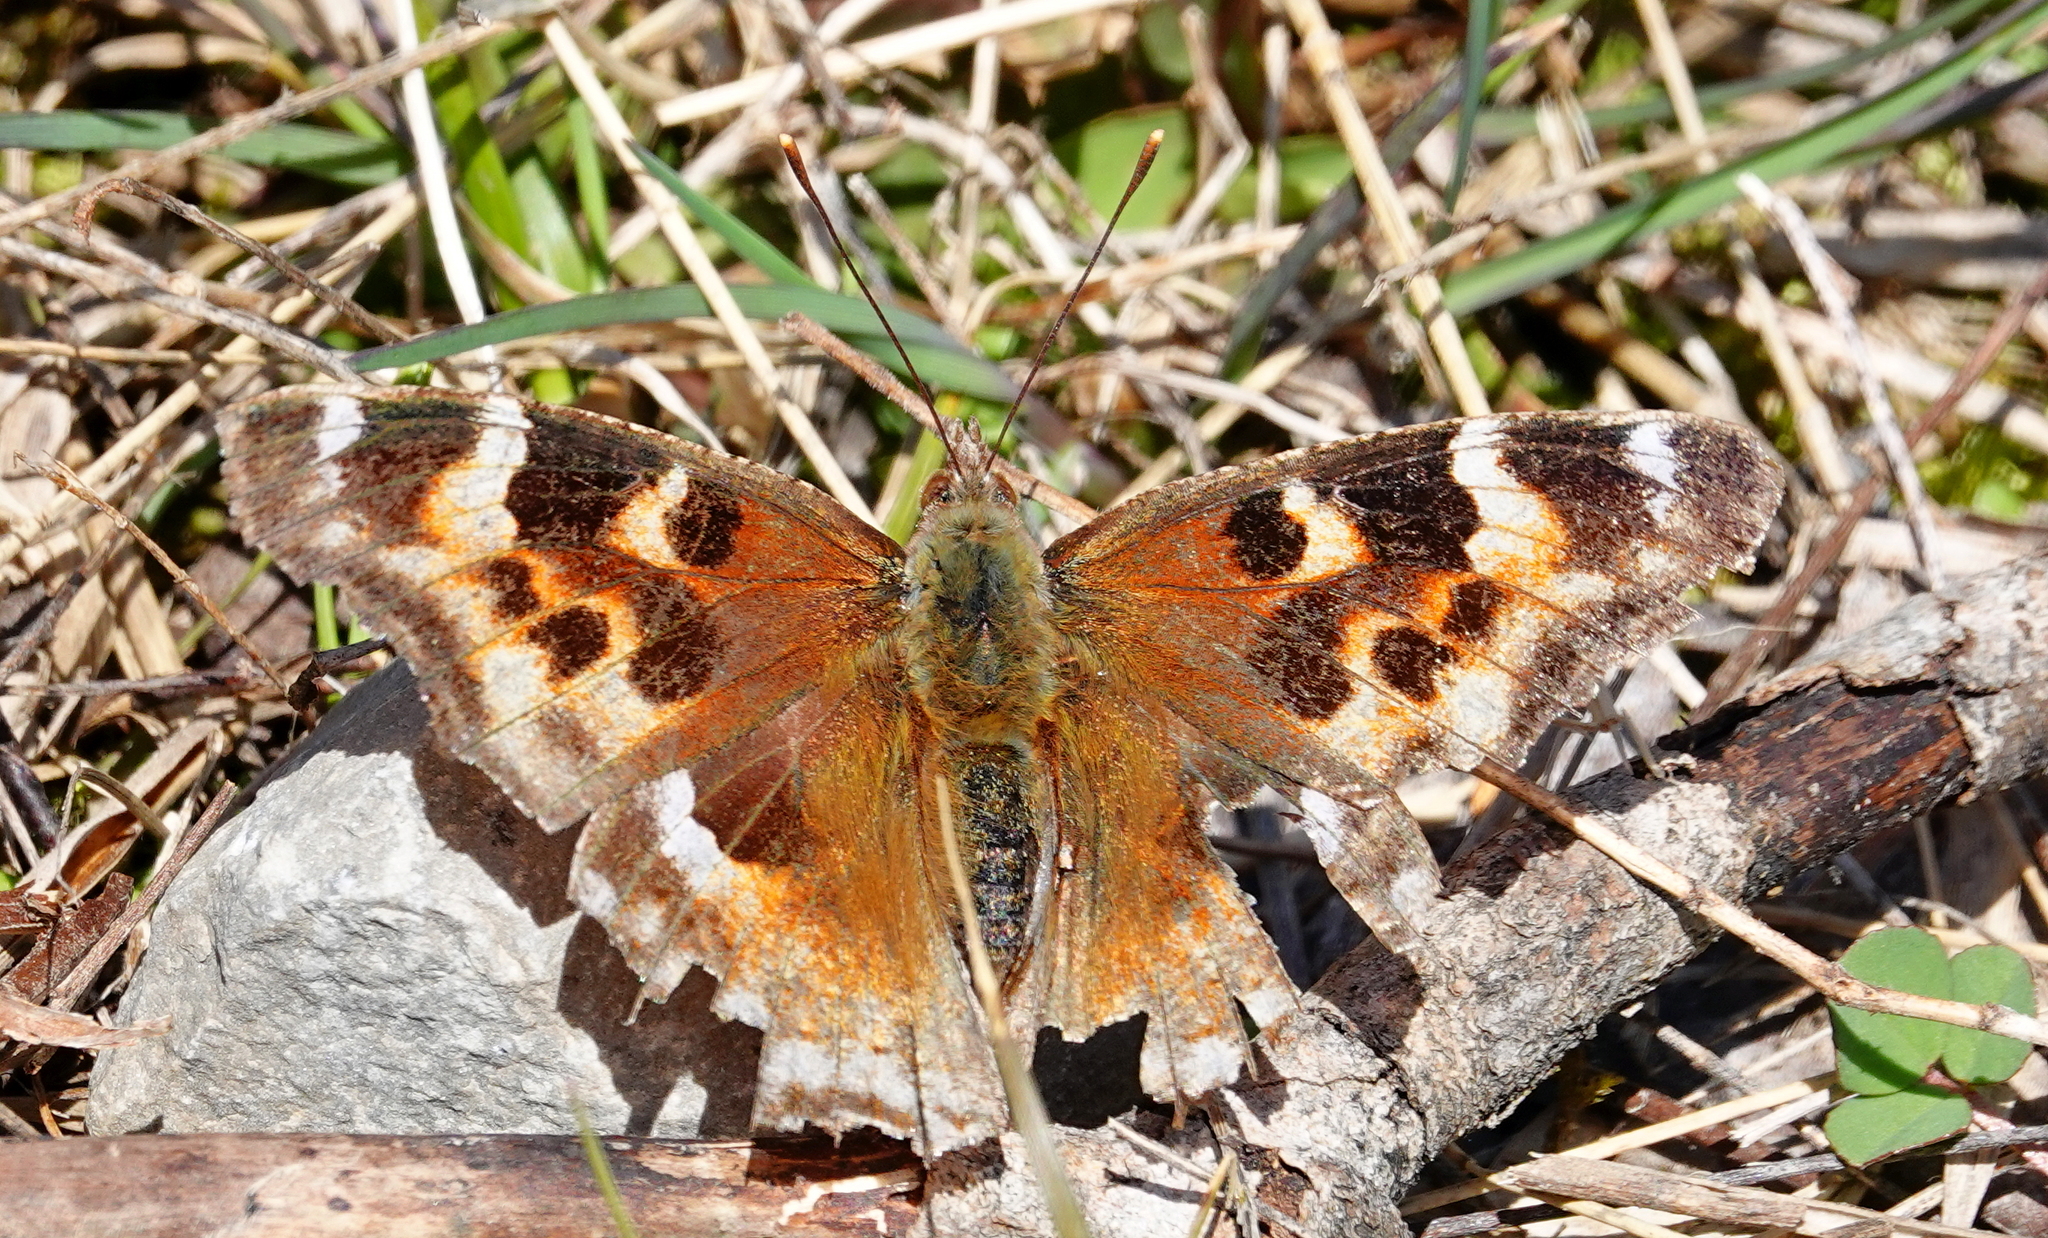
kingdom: Animalia
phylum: Arthropoda
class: Insecta
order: Lepidoptera
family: Nymphalidae
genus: Polygonia
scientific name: Polygonia vaualbum
